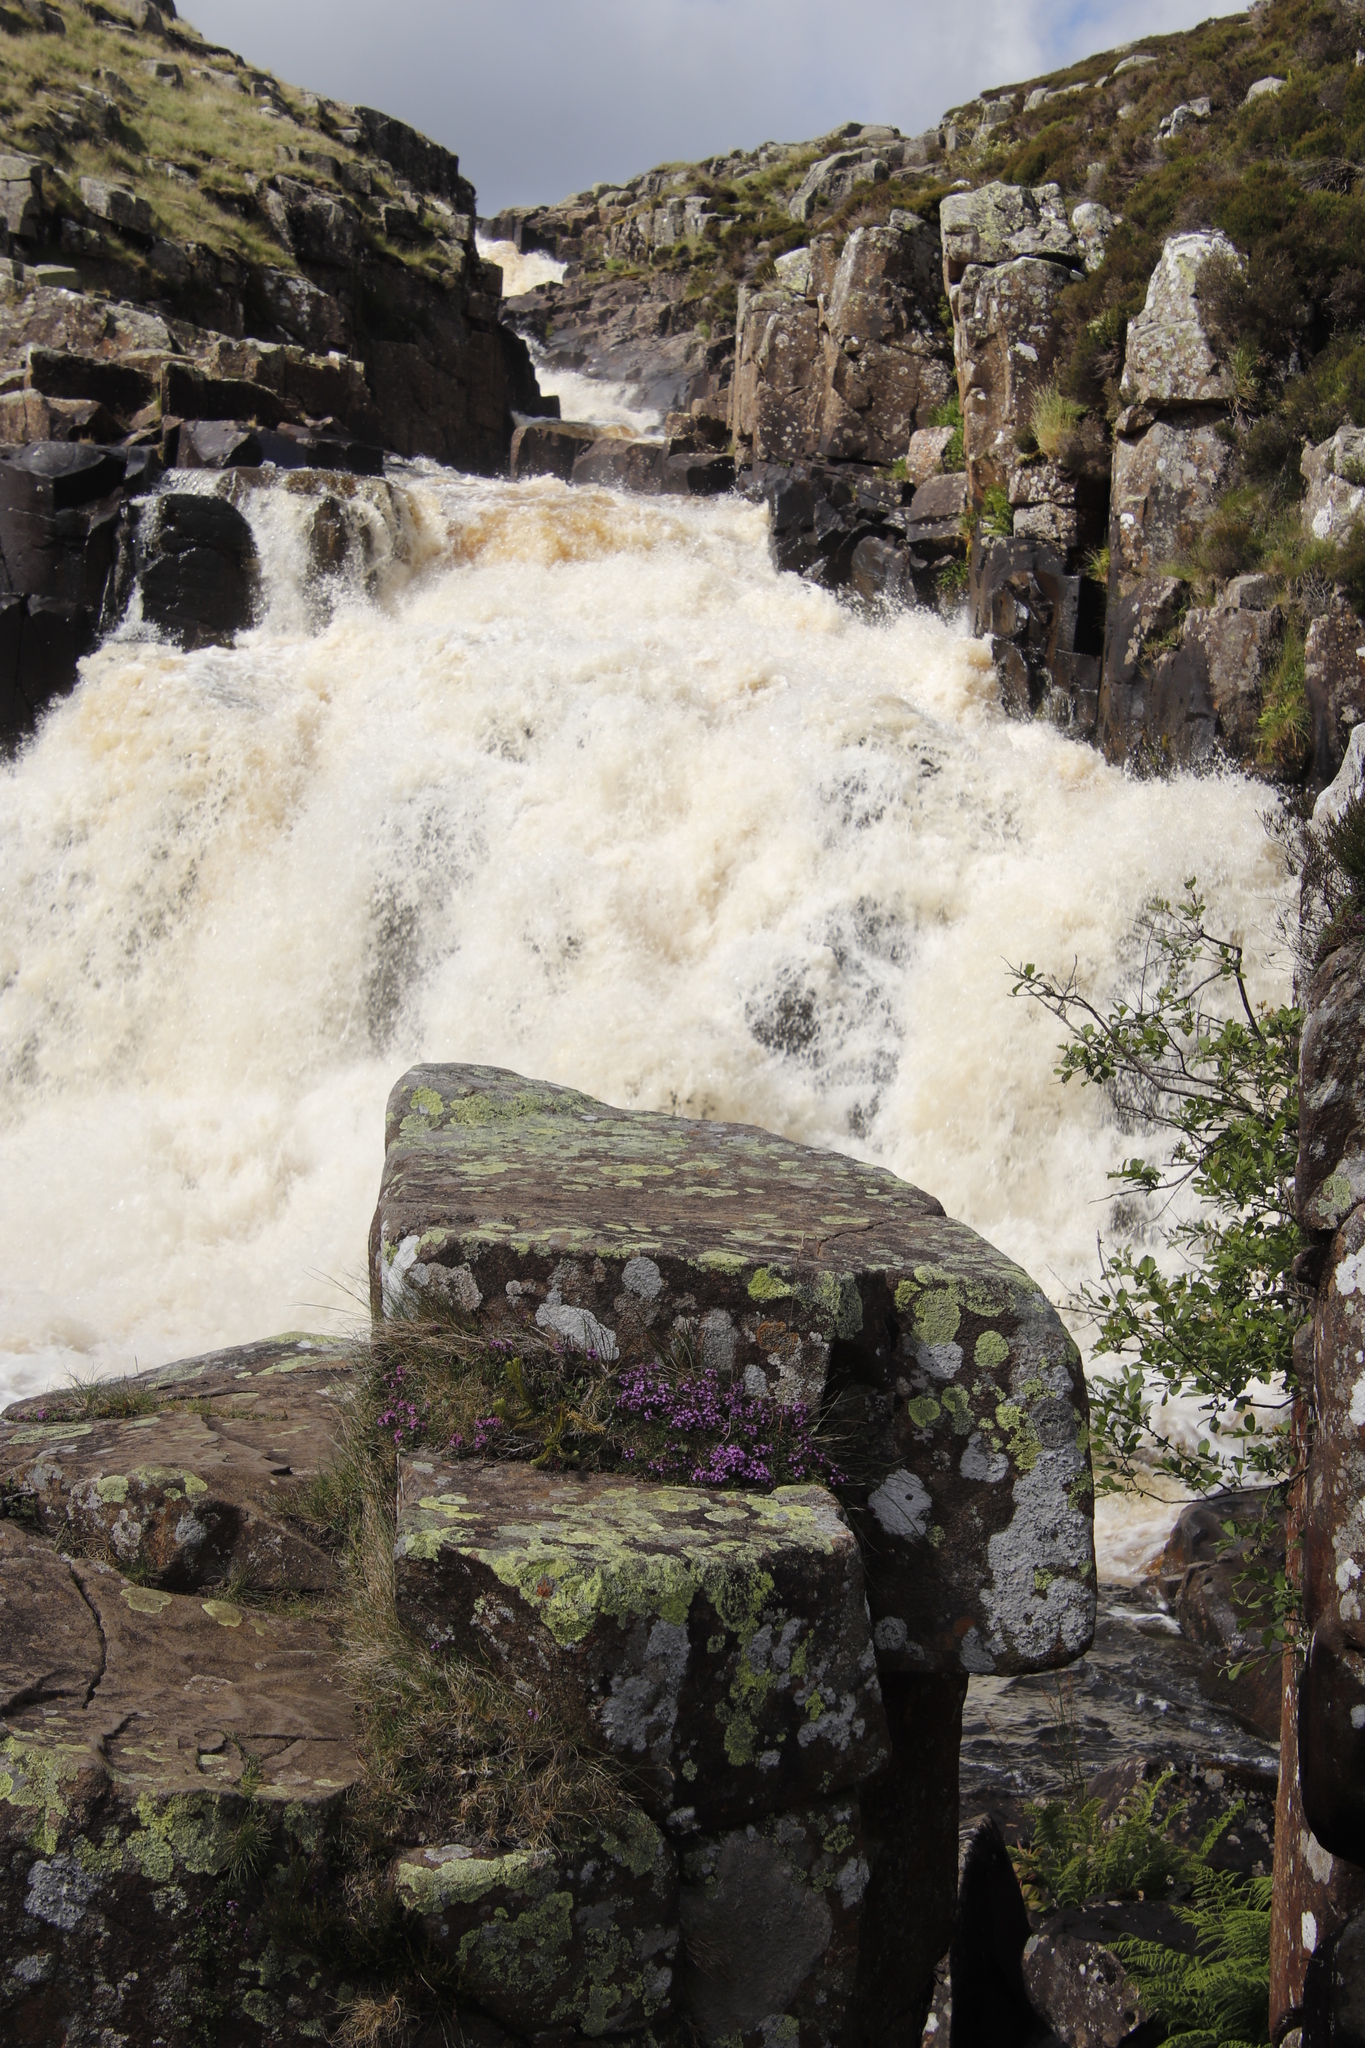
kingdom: Plantae
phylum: Tracheophyta
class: Magnoliopsida
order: Lamiales
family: Lamiaceae
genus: Thymus
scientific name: Thymus praecox
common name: Wild thyme
